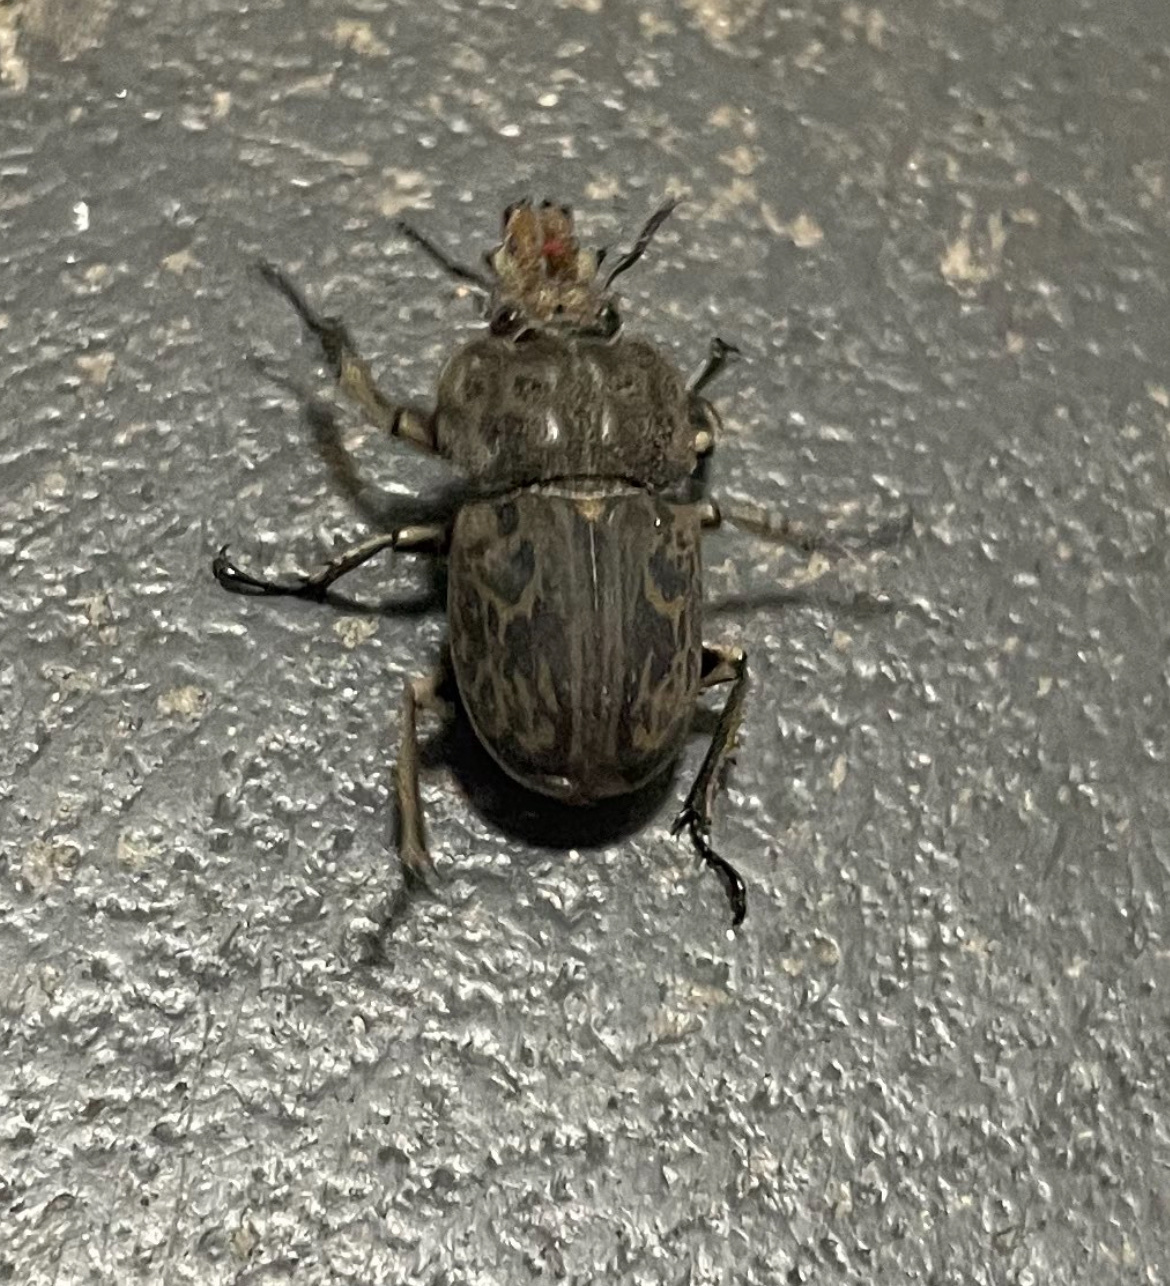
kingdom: Animalia
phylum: Arthropoda
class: Insecta
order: Coleoptera
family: Lucanidae
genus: Ryssonotus
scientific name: Ryssonotus nebulosus
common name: Brown stag beetle
